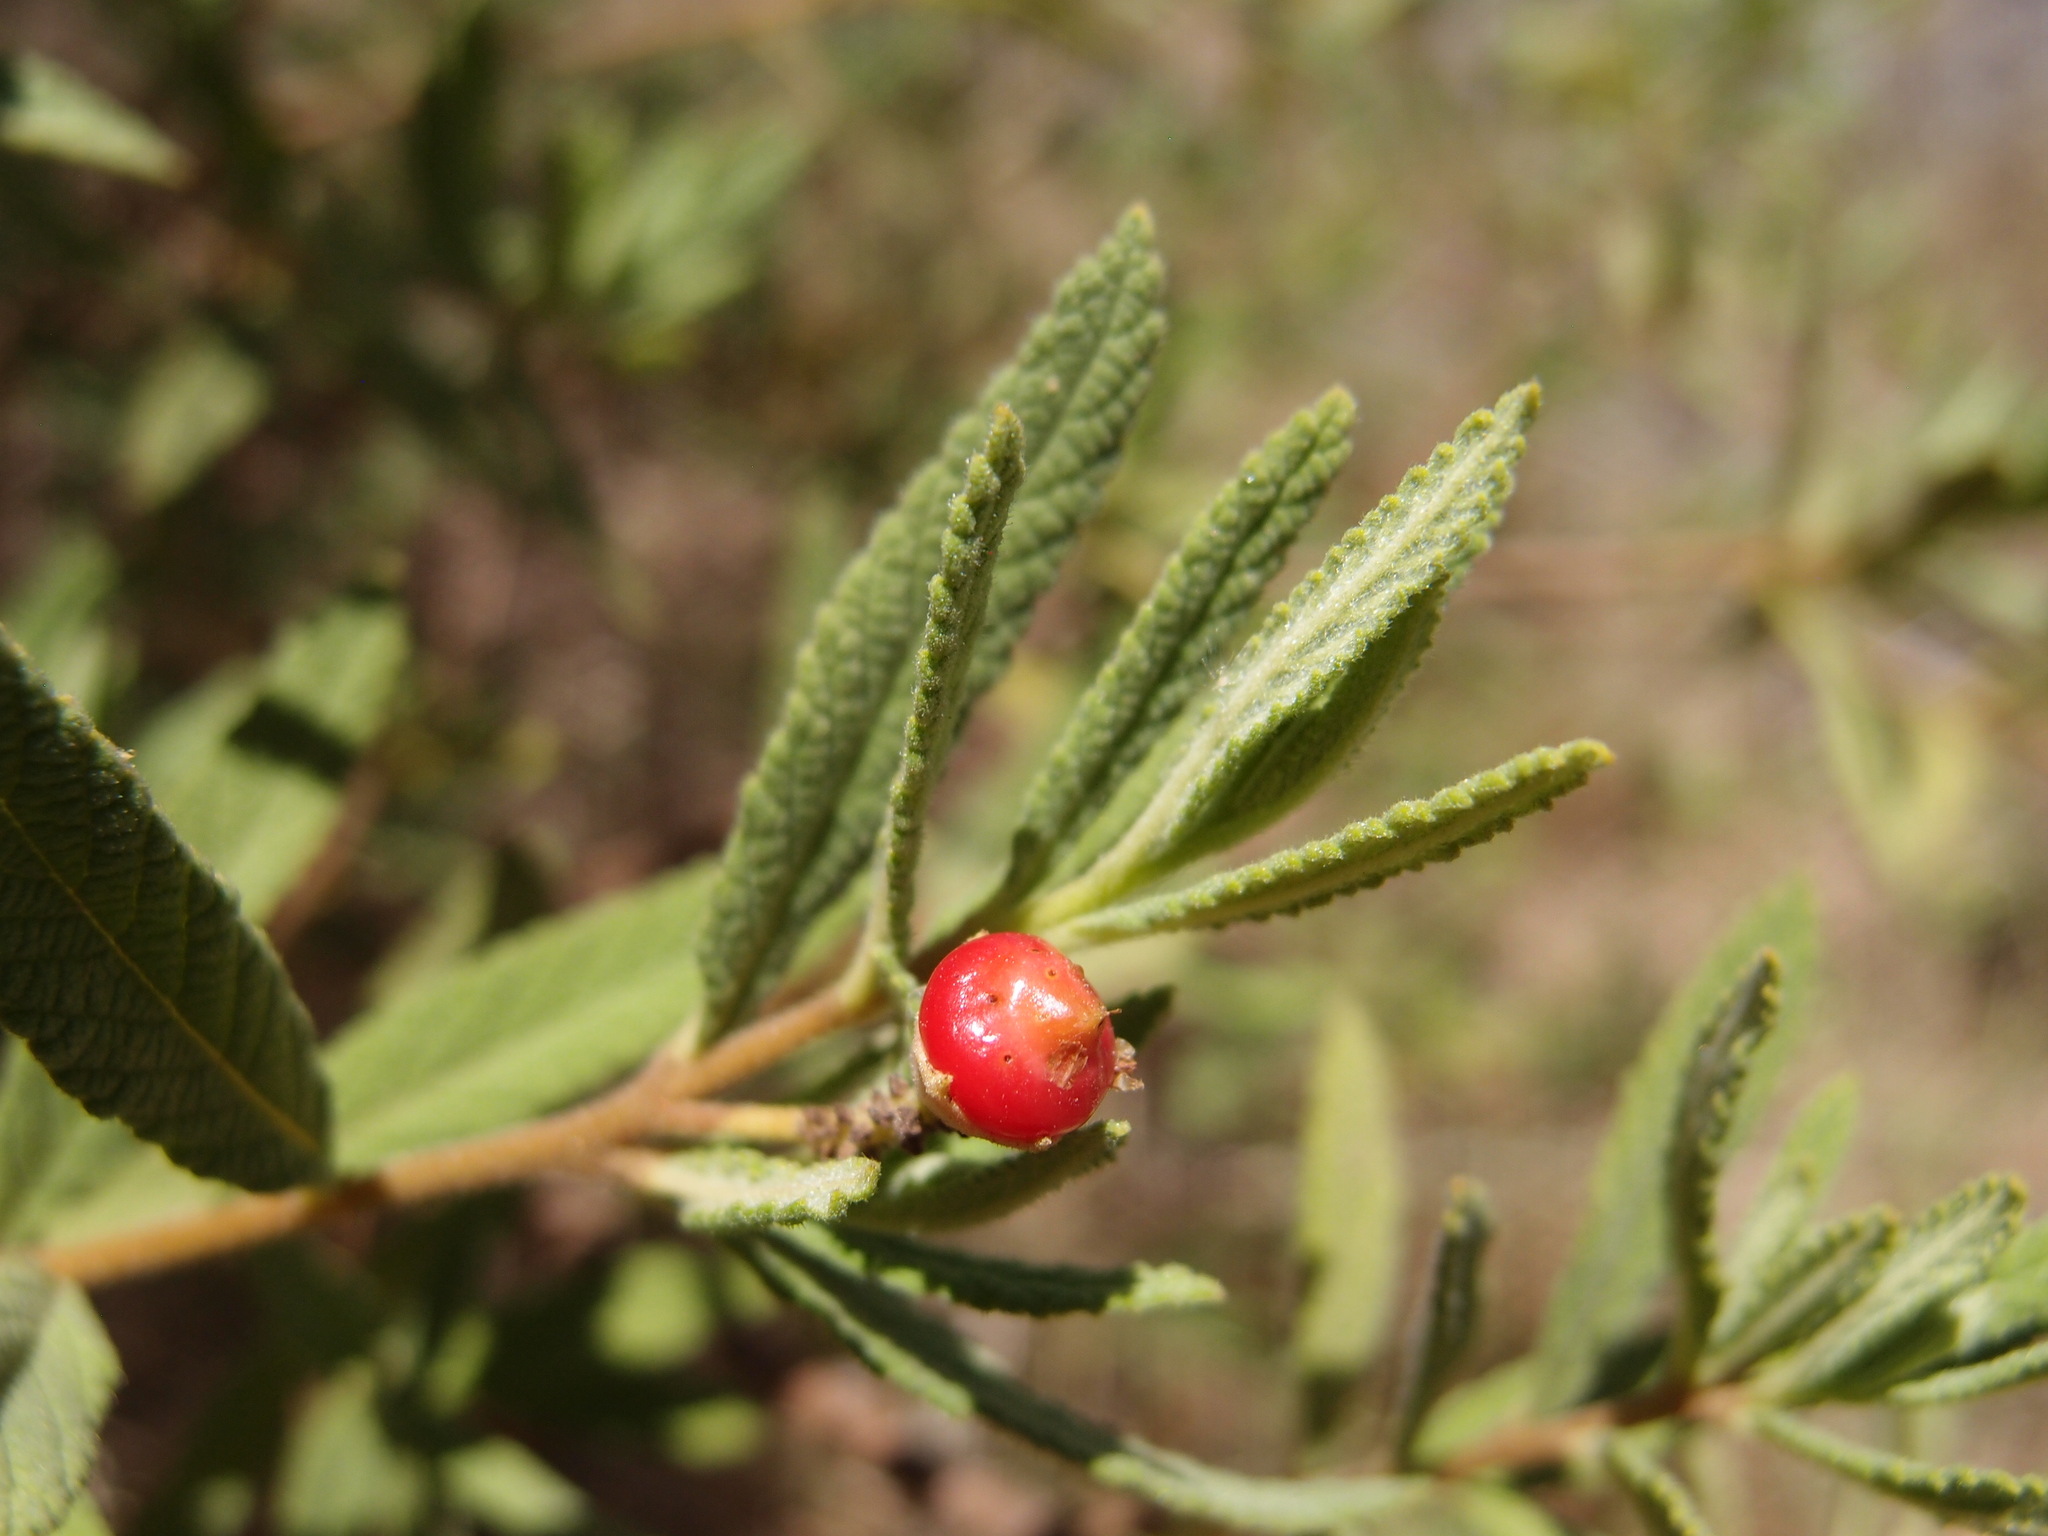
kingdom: Plantae
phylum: Tracheophyta
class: Magnoliopsida
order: Boraginales
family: Cordiaceae
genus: Varronia
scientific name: Varronia curassavica
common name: Black sage
